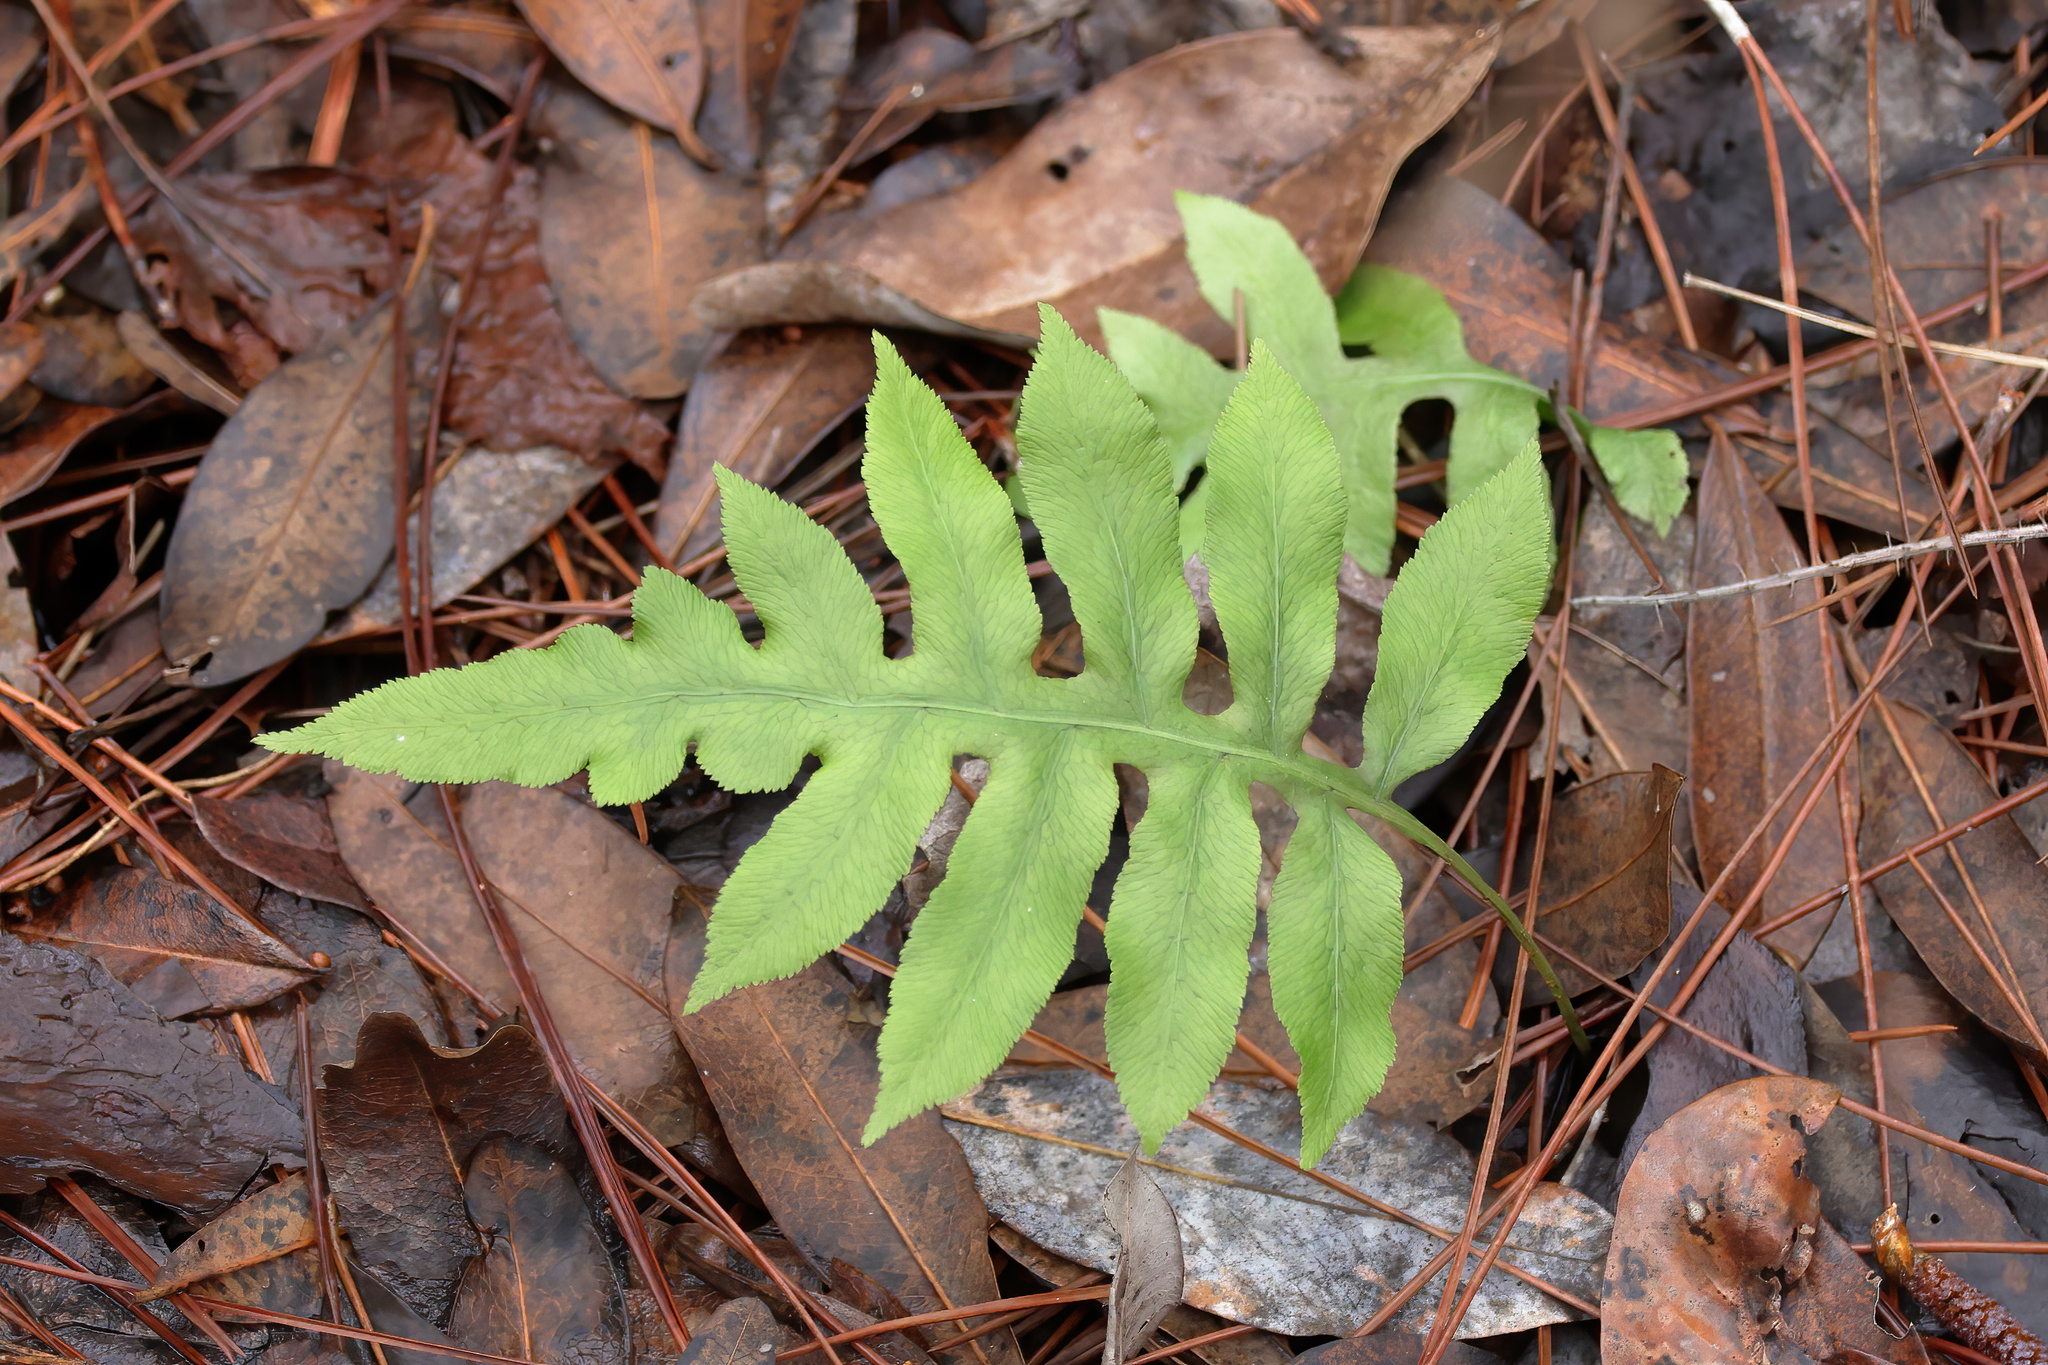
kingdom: Plantae
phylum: Tracheophyta
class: Polypodiopsida
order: Polypodiales
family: Blechnaceae
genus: Lorinseria
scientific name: Lorinseria areolata
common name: Dwarf chain fern
